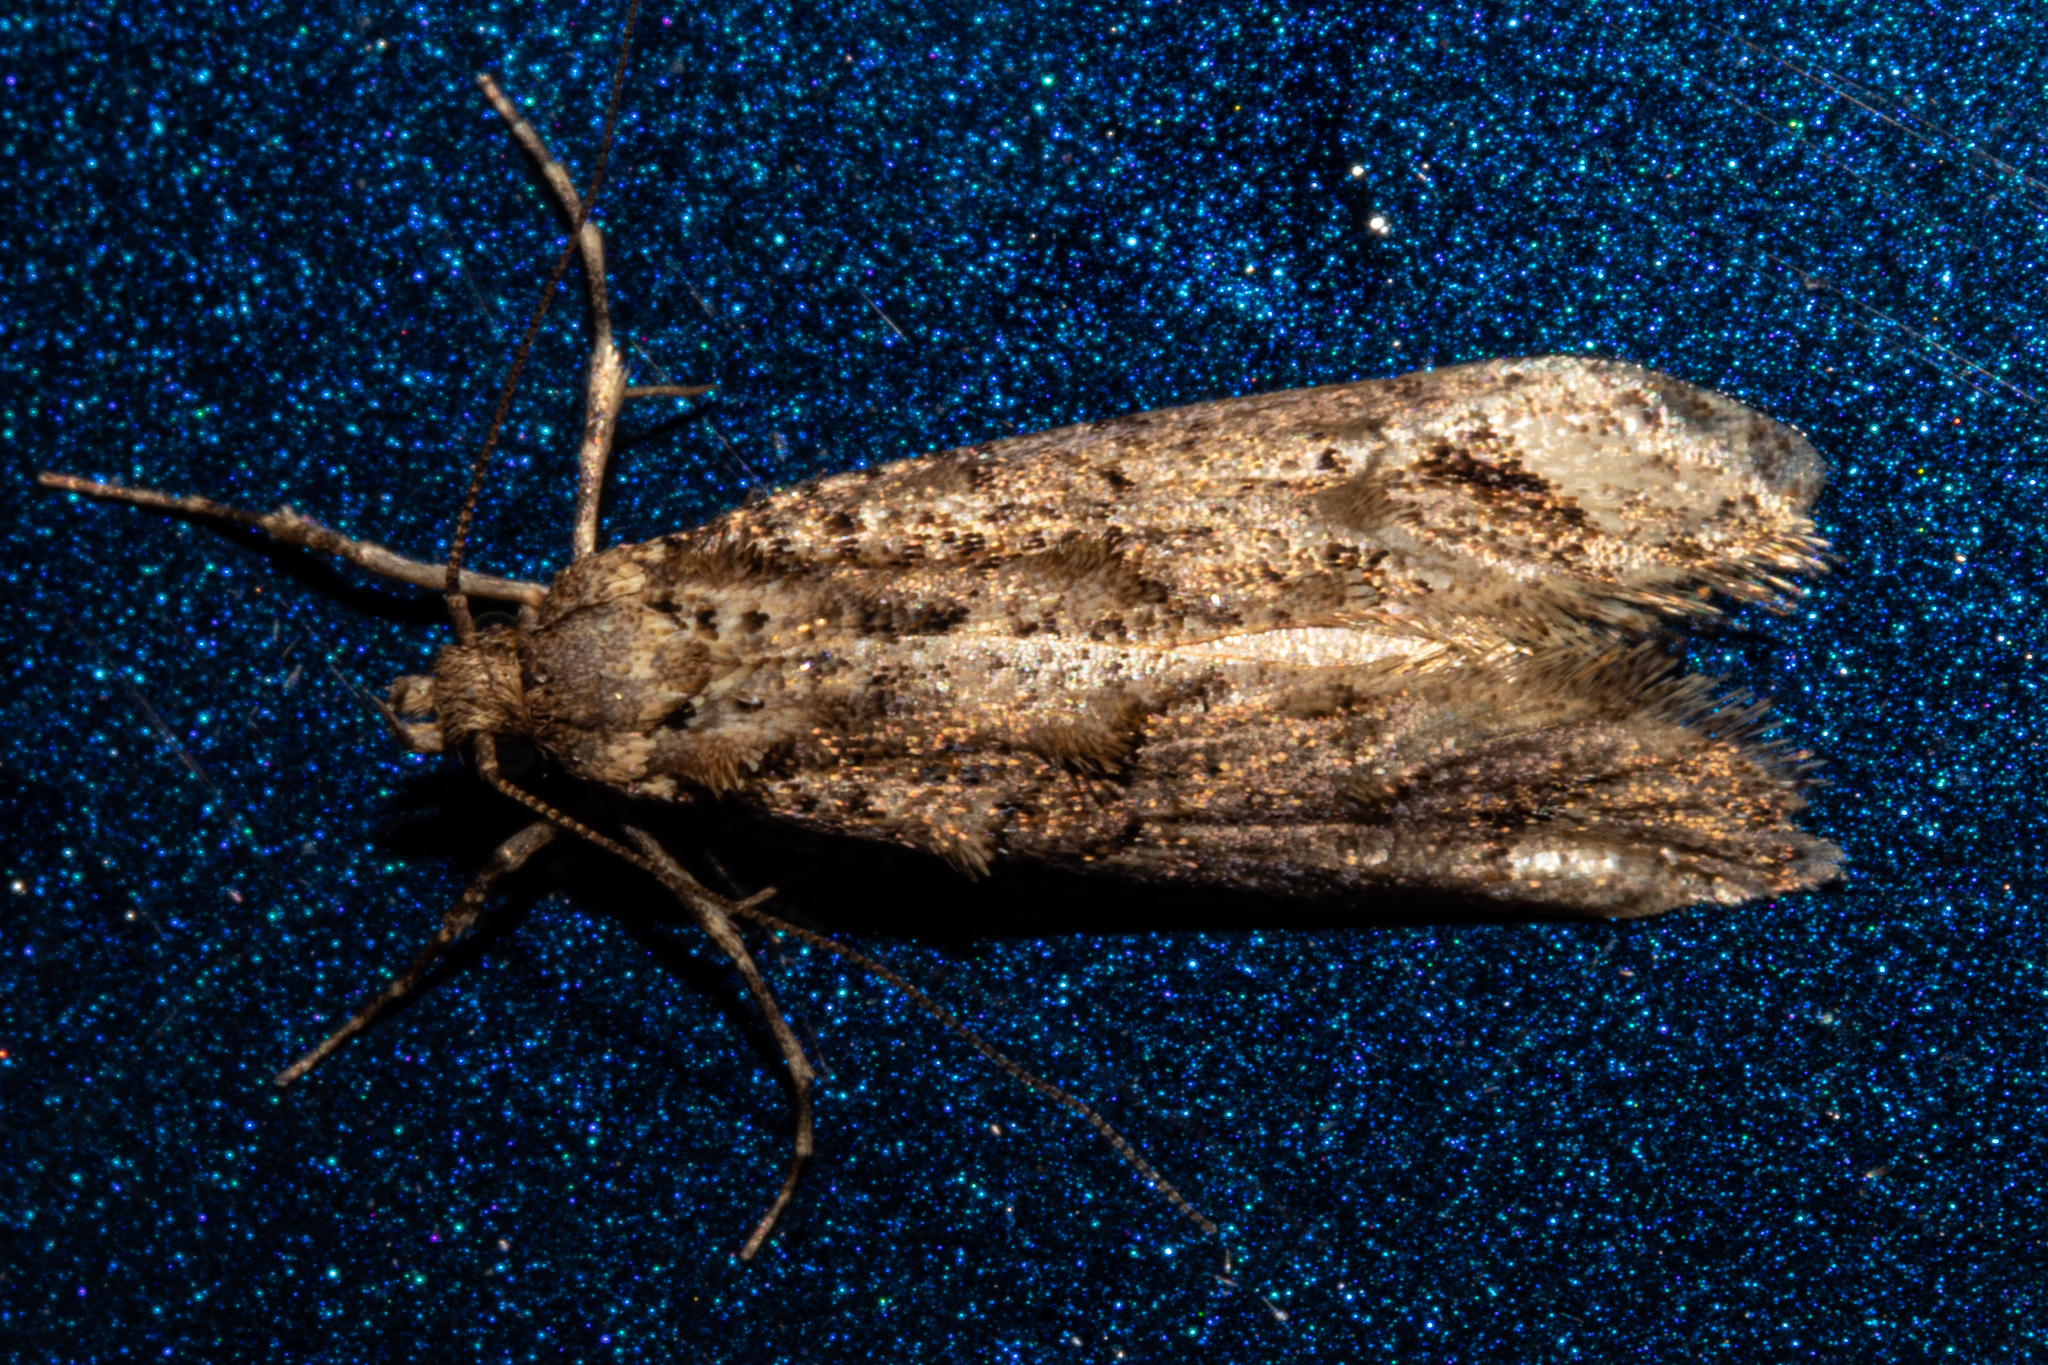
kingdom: Animalia
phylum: Arthropoda
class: Insecta
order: Lepidoptera
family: Tineidae
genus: Lysiphragma
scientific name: Lysiphragma epixyla
